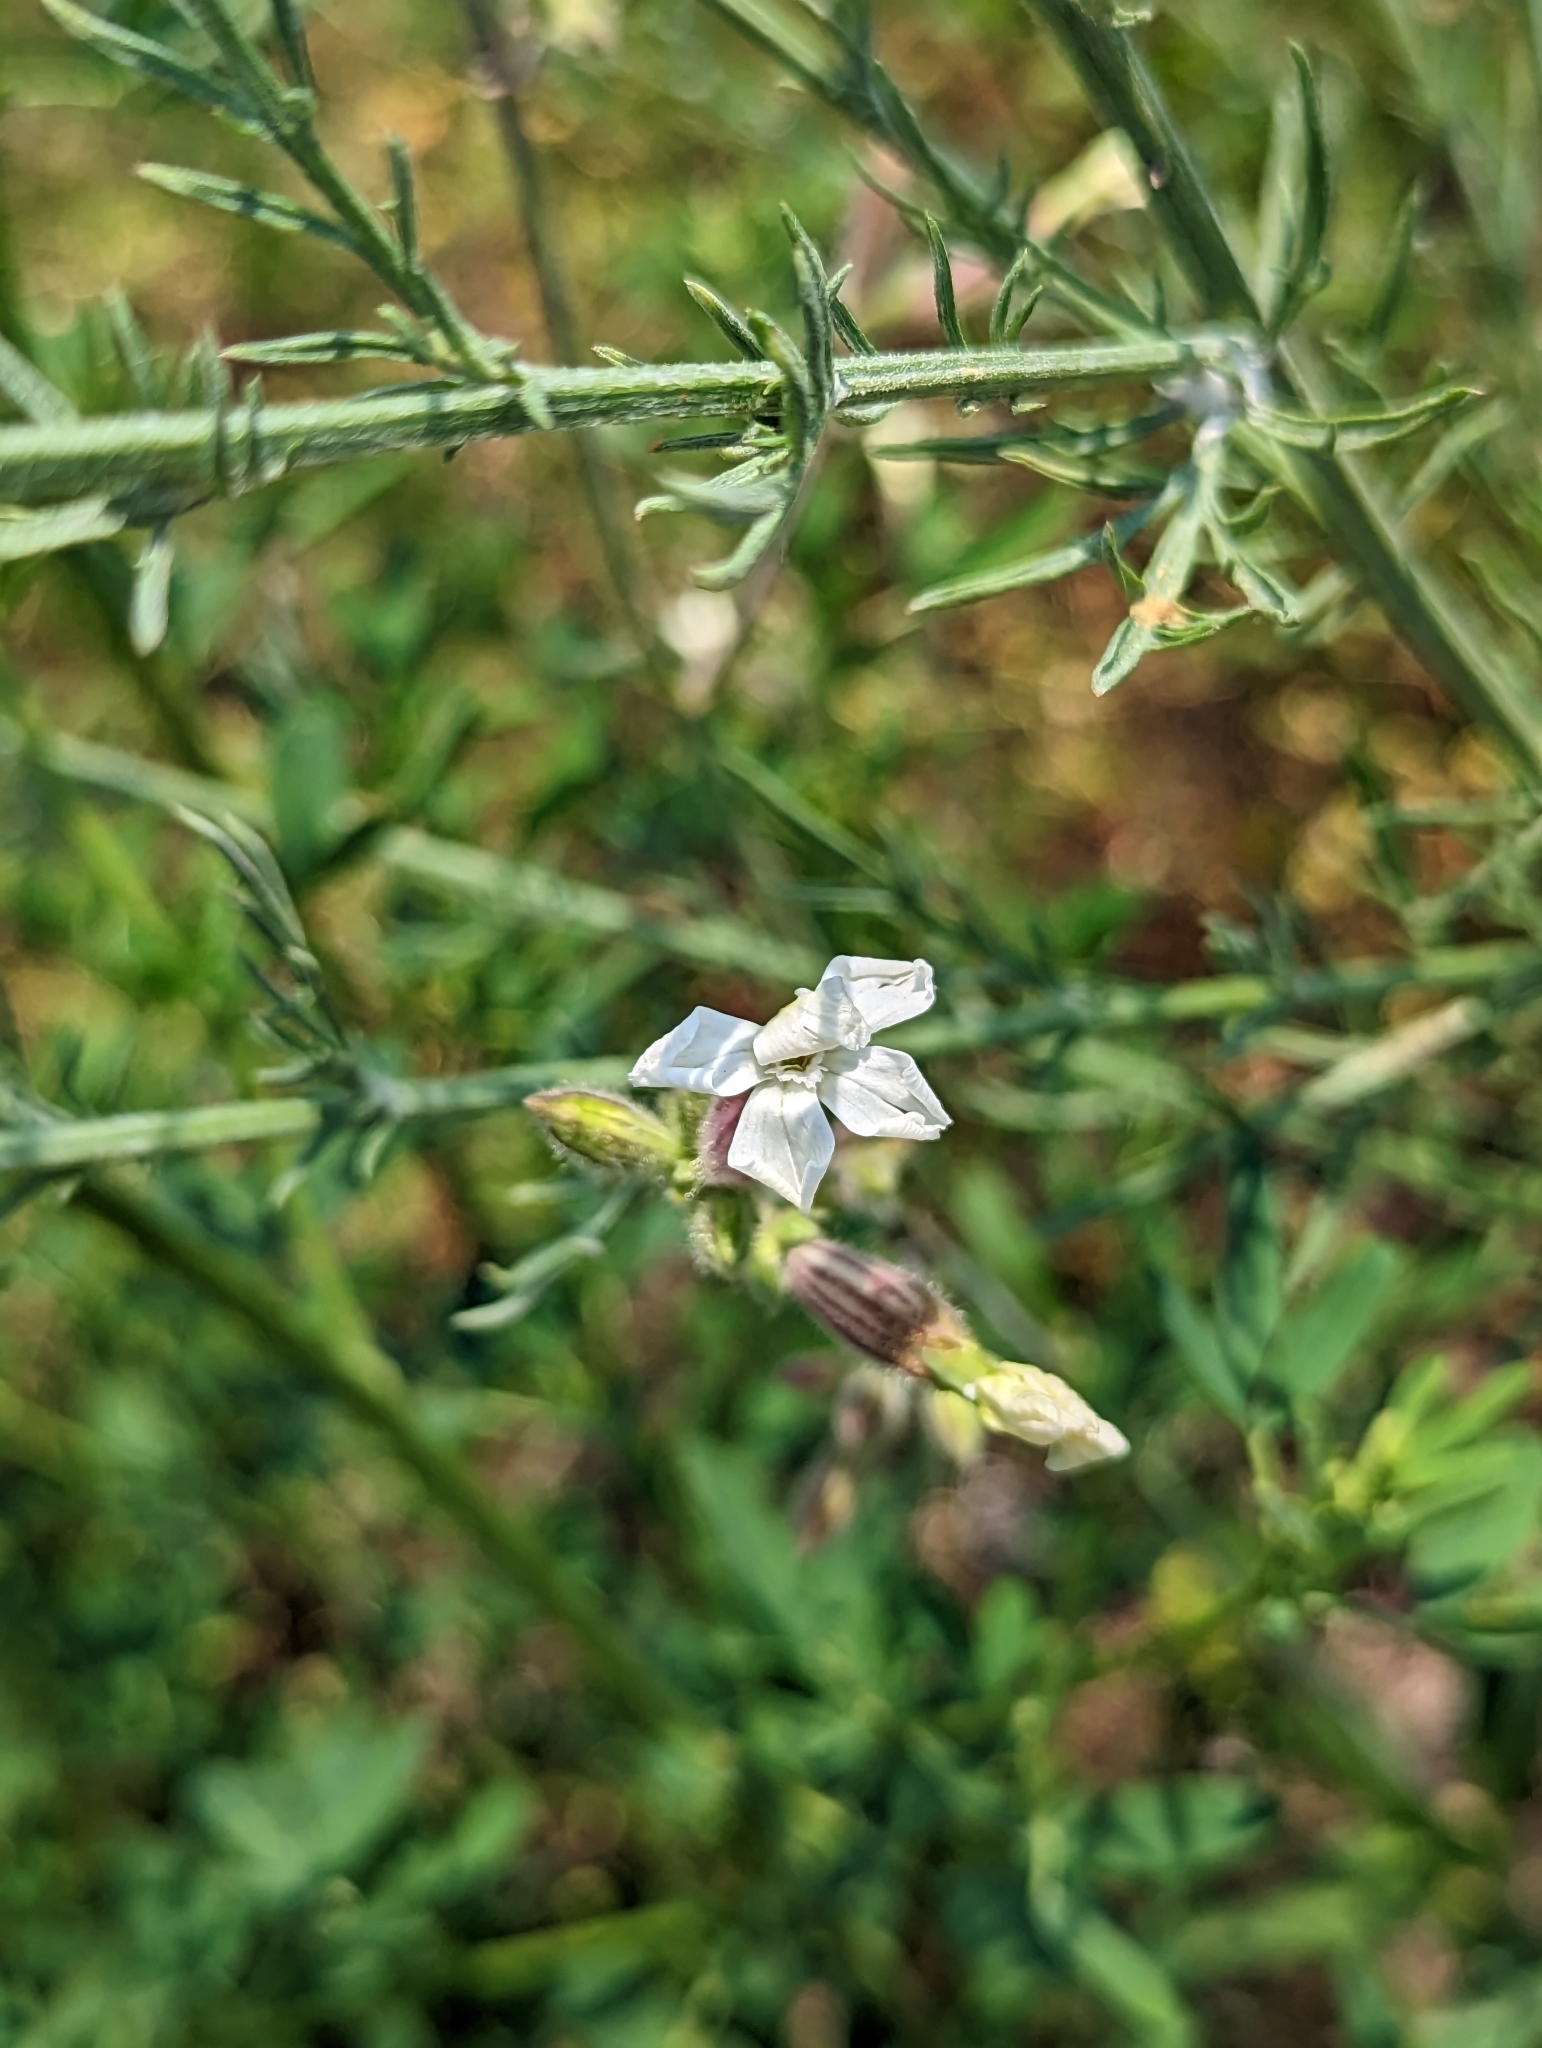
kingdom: Plantae
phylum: Tracheophyta
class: Magnoliopsida
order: Caryophyllales
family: Caryophyllaceae
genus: Silene
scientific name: Silene latifolia
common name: White campion
